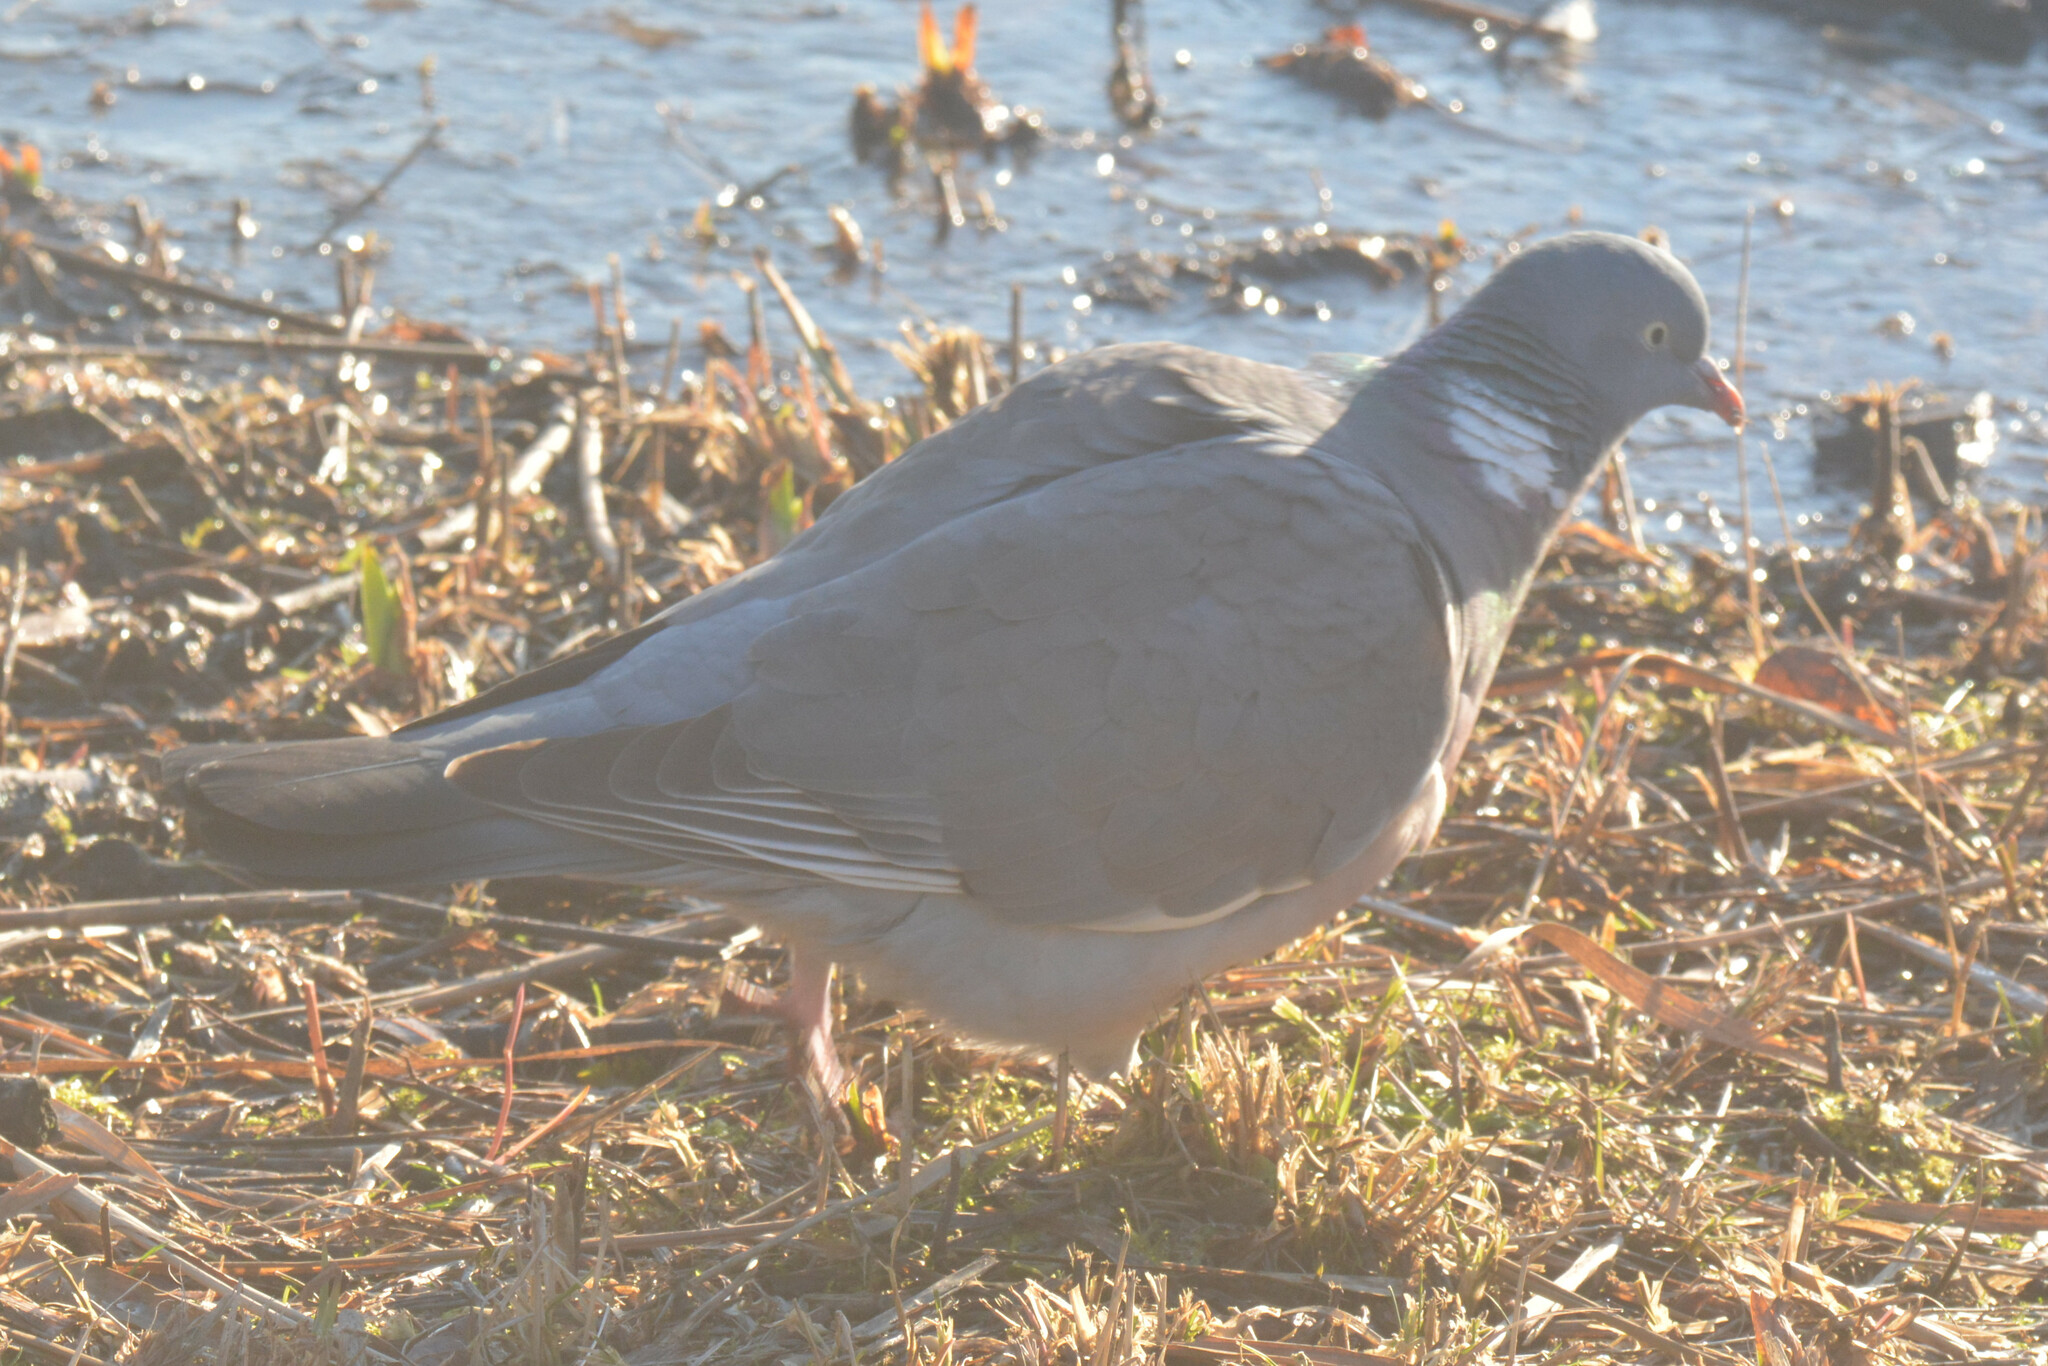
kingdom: Animalia
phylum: Chordata
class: Aves
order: Columbiformes
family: Columbidae
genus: Columba
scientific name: Columba palumbus
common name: Common wood pigeon
